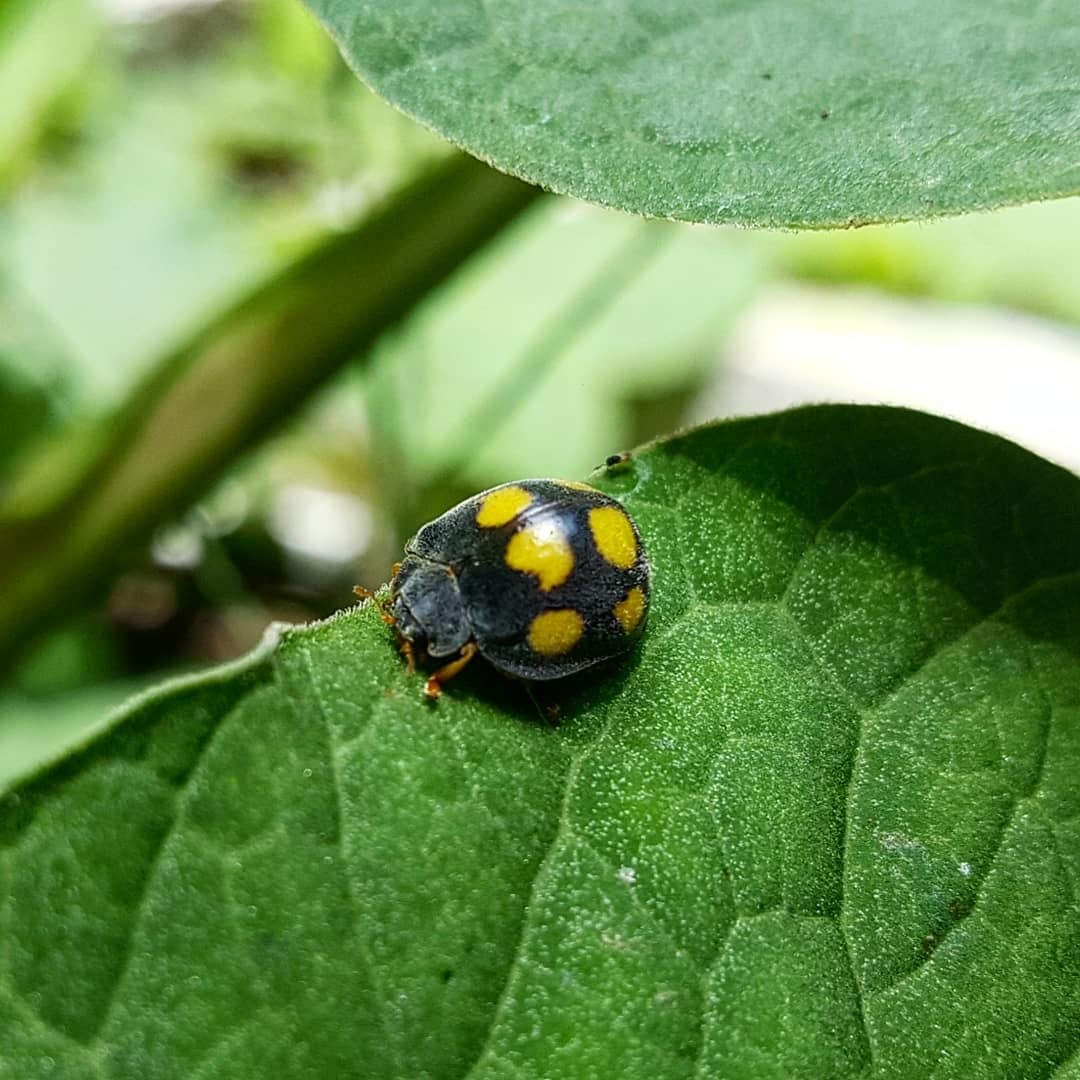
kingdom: Animalia
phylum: Arthropoda
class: Insecta
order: Coleoptera
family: Coccinellidae
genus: Epilachna
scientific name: Epilachna
